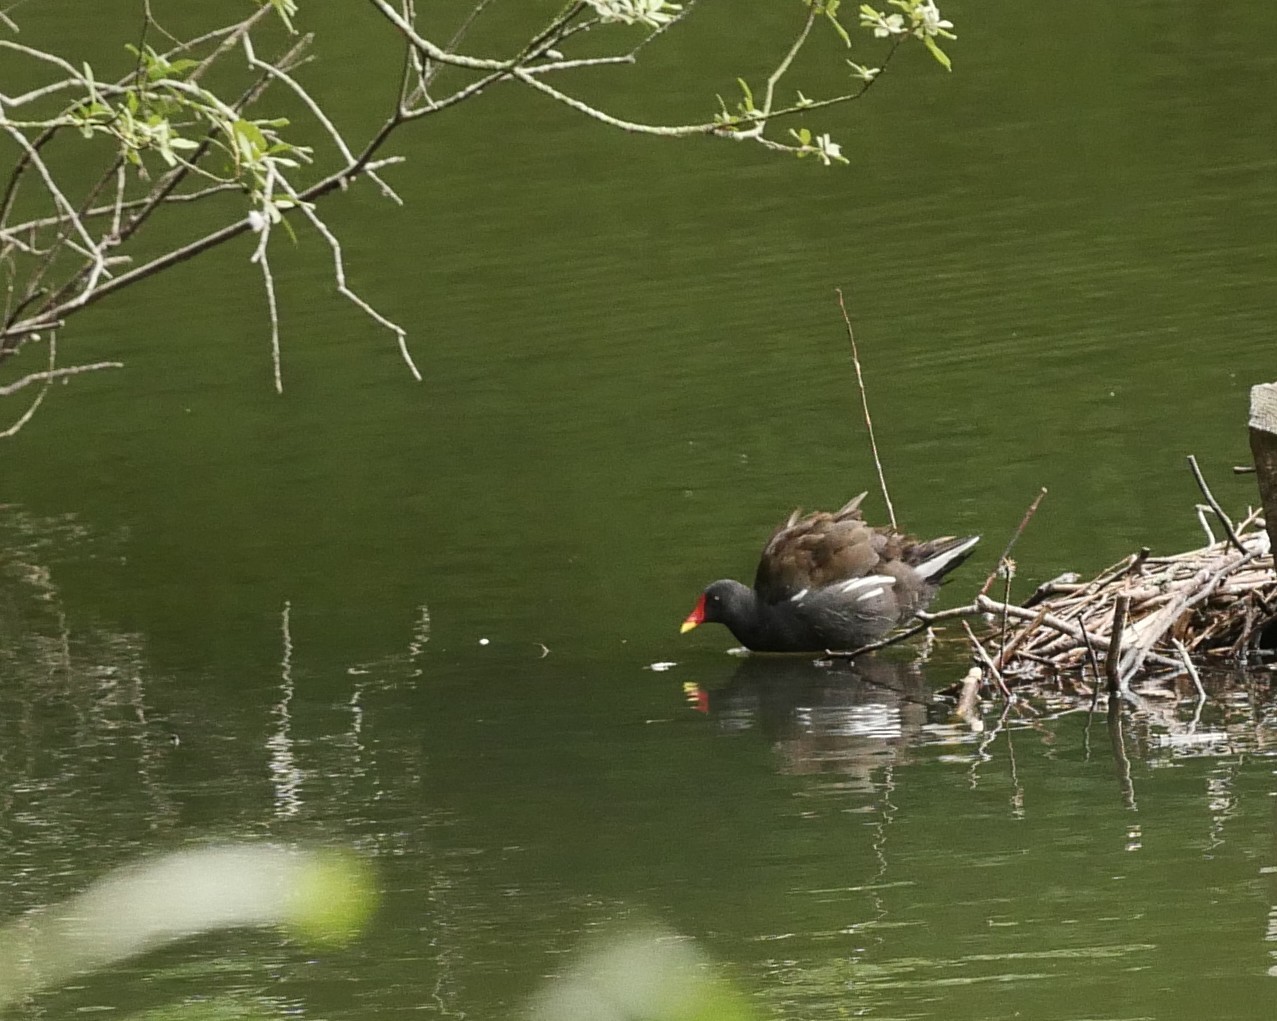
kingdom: Animalia
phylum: Chordata
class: Aves
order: Gruiformes
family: Rallidae
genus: Gallinula
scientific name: Gallinula chloropus
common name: Common moorhen
